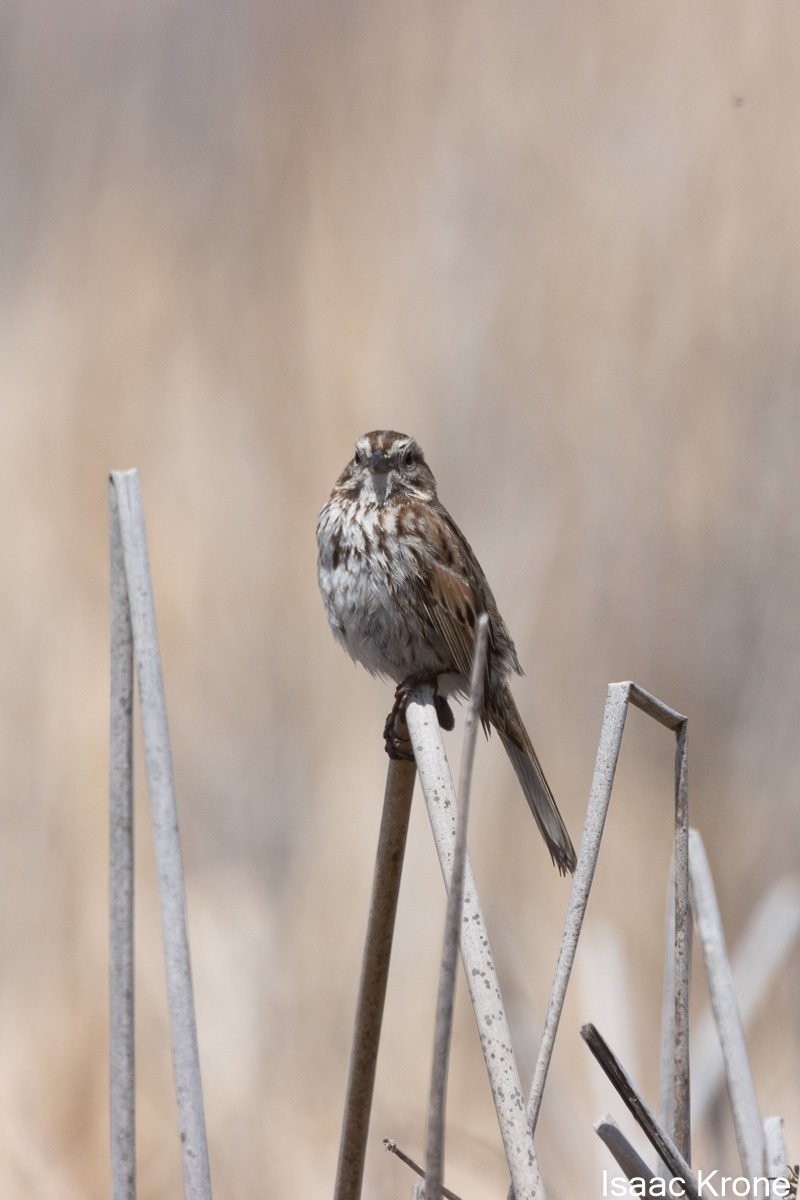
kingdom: Animalia
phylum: Chordata
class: Aves
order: Passeriformes
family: Passerellidae
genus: Melospiza
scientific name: Melospiza melodia
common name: Song sparrow
